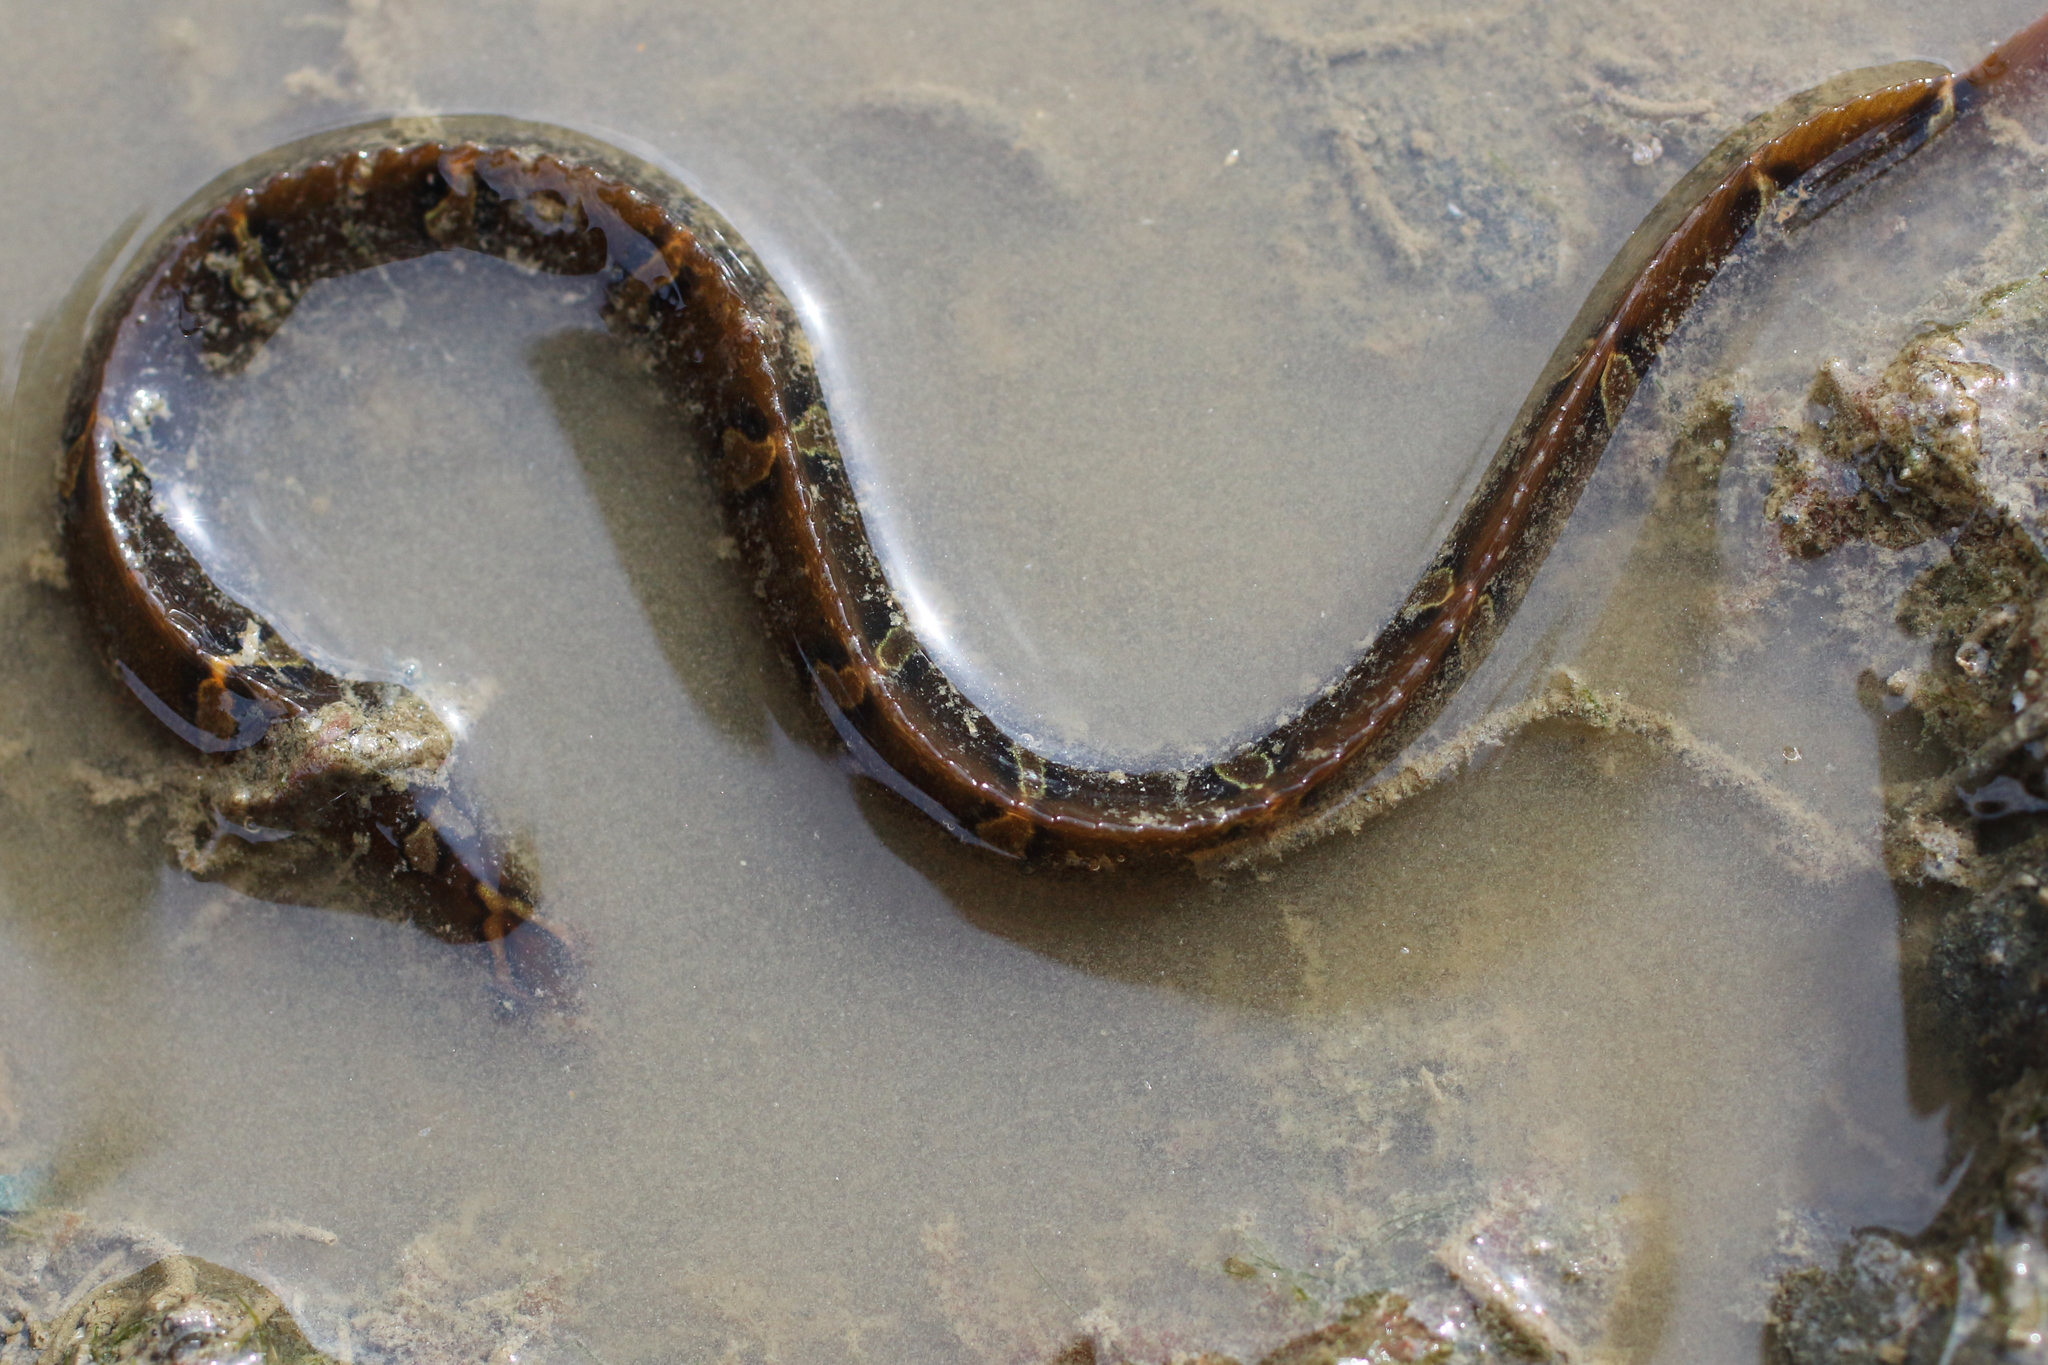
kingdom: Animalia
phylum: Chordata
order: Perciformes
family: Pholidae
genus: Pholis
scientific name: Pholis laeta
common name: Crescent gunnel
